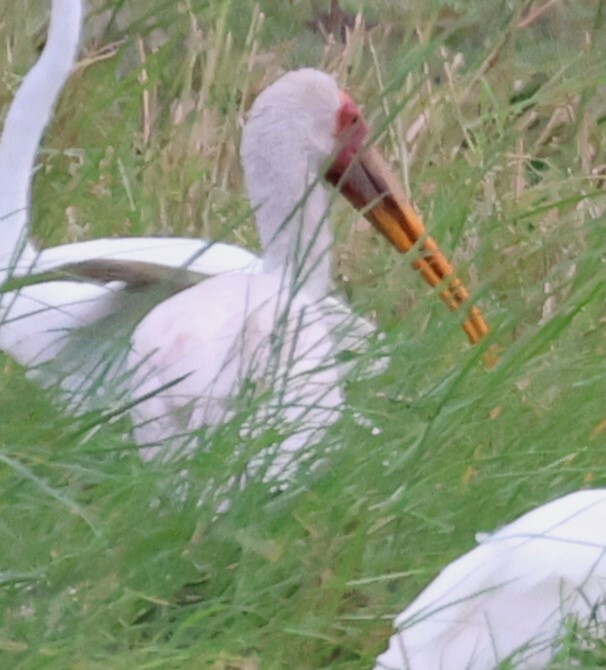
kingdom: Animalia
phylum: Chordata
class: Aves
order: Ciconiiformes
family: Ciconiidae
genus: Mycteria
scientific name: Mycteria ibis
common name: Yellow-billed stork
